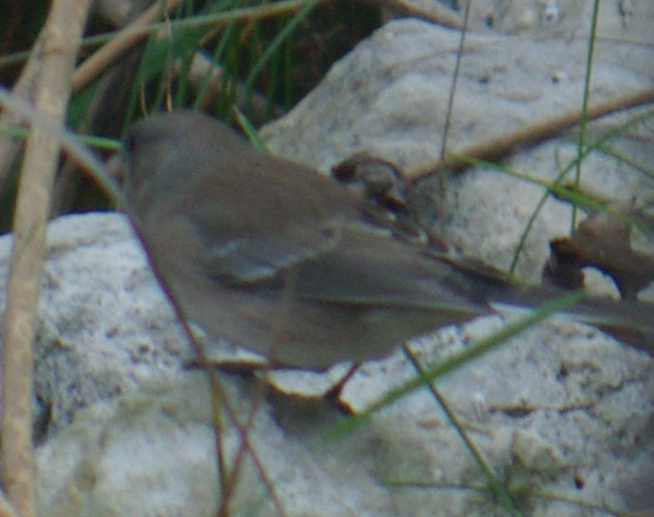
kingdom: Animalia
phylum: Chordata
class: Aves
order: Passeriformes
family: Passerellidae
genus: Junco
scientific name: Junco hyemalis
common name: Dark-eyed junco
